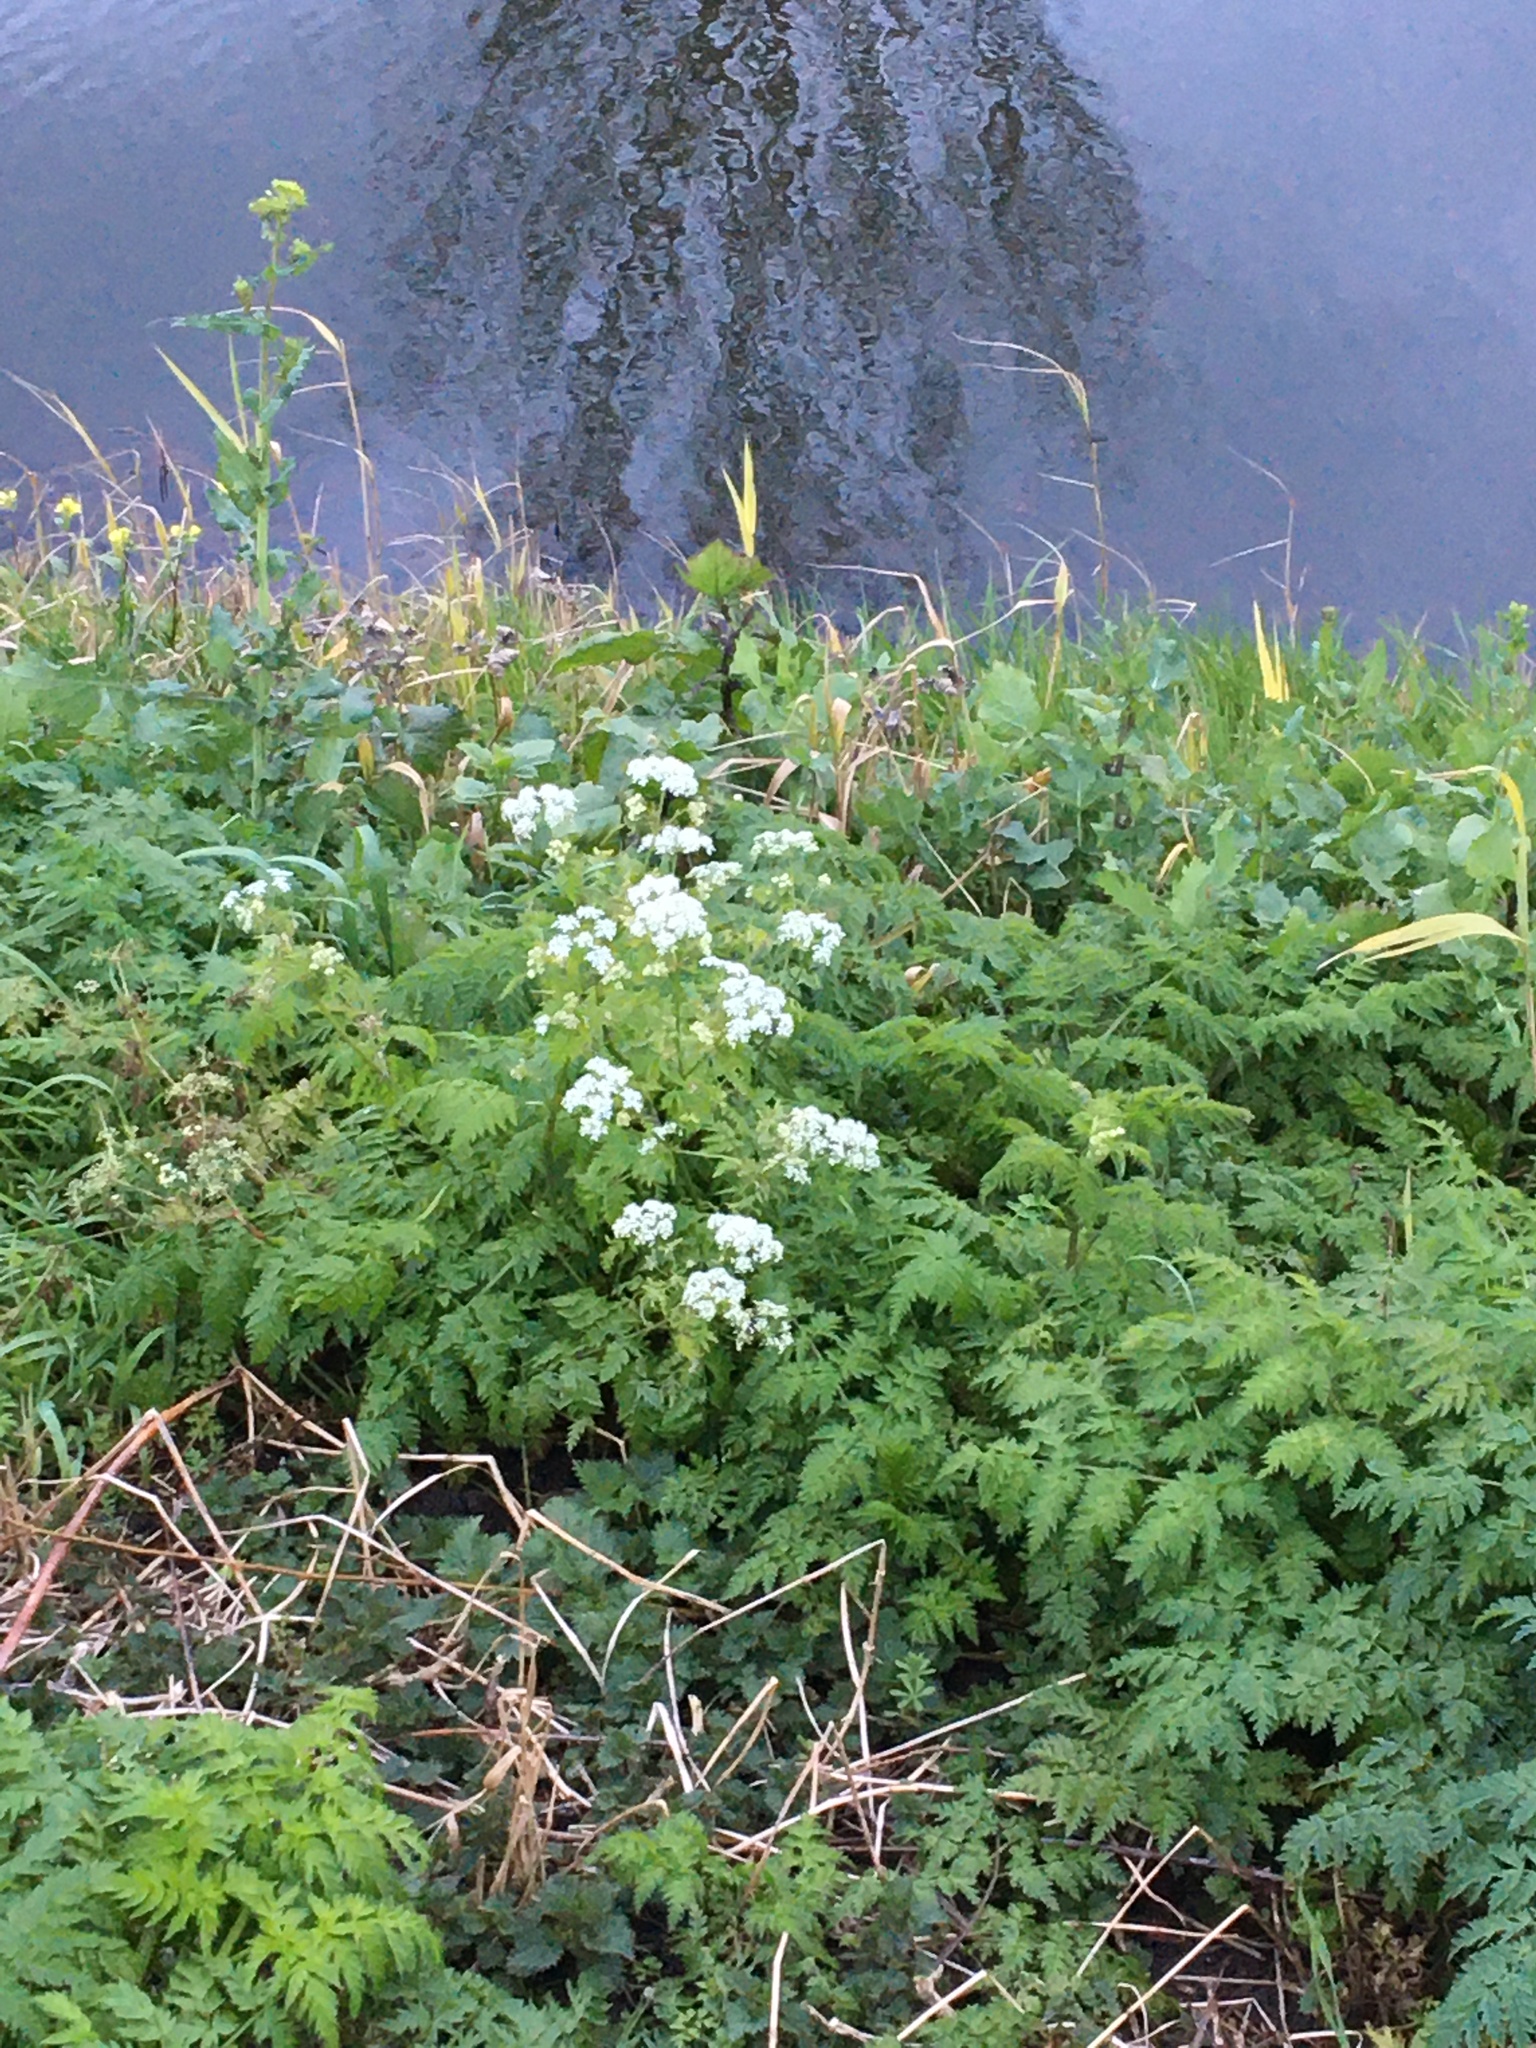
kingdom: Plantae
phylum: Tracheophyta
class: Magnoliopsida
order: Apiales
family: Apiaceae
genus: Anthriscus
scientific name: Anthriscus sylvestris
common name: Cow parsley
